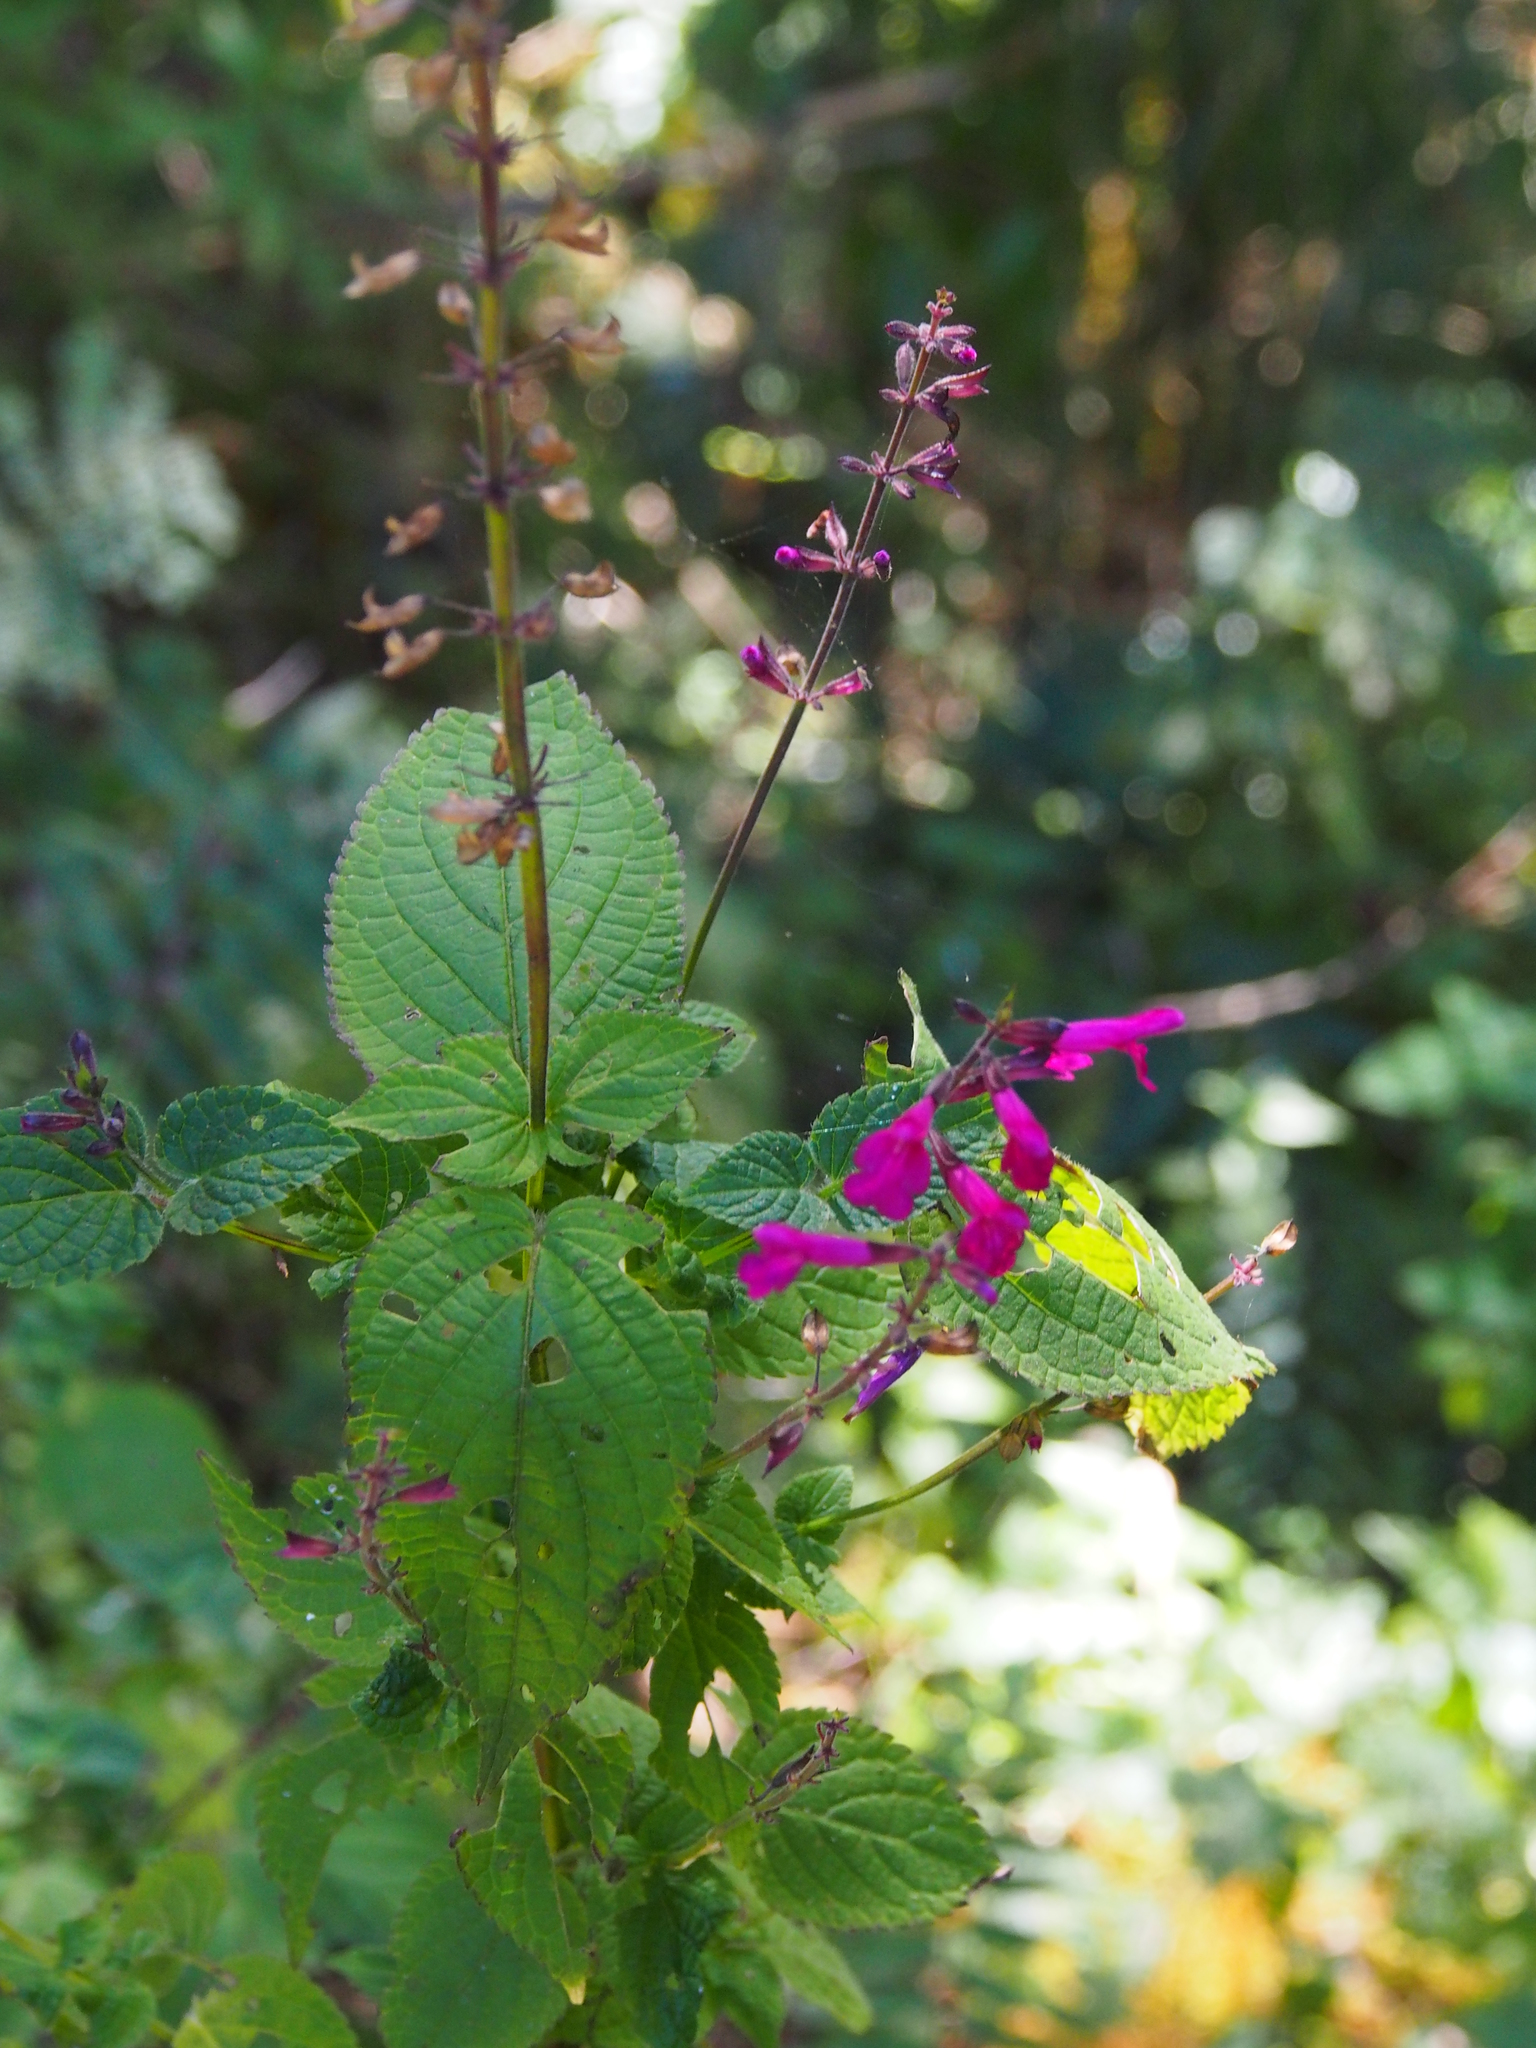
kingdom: Plantae
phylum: Tracheophyta
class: Magnoliopsida
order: Lamiales
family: Lamiaceae
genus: Salvia
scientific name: Salvia carnea
